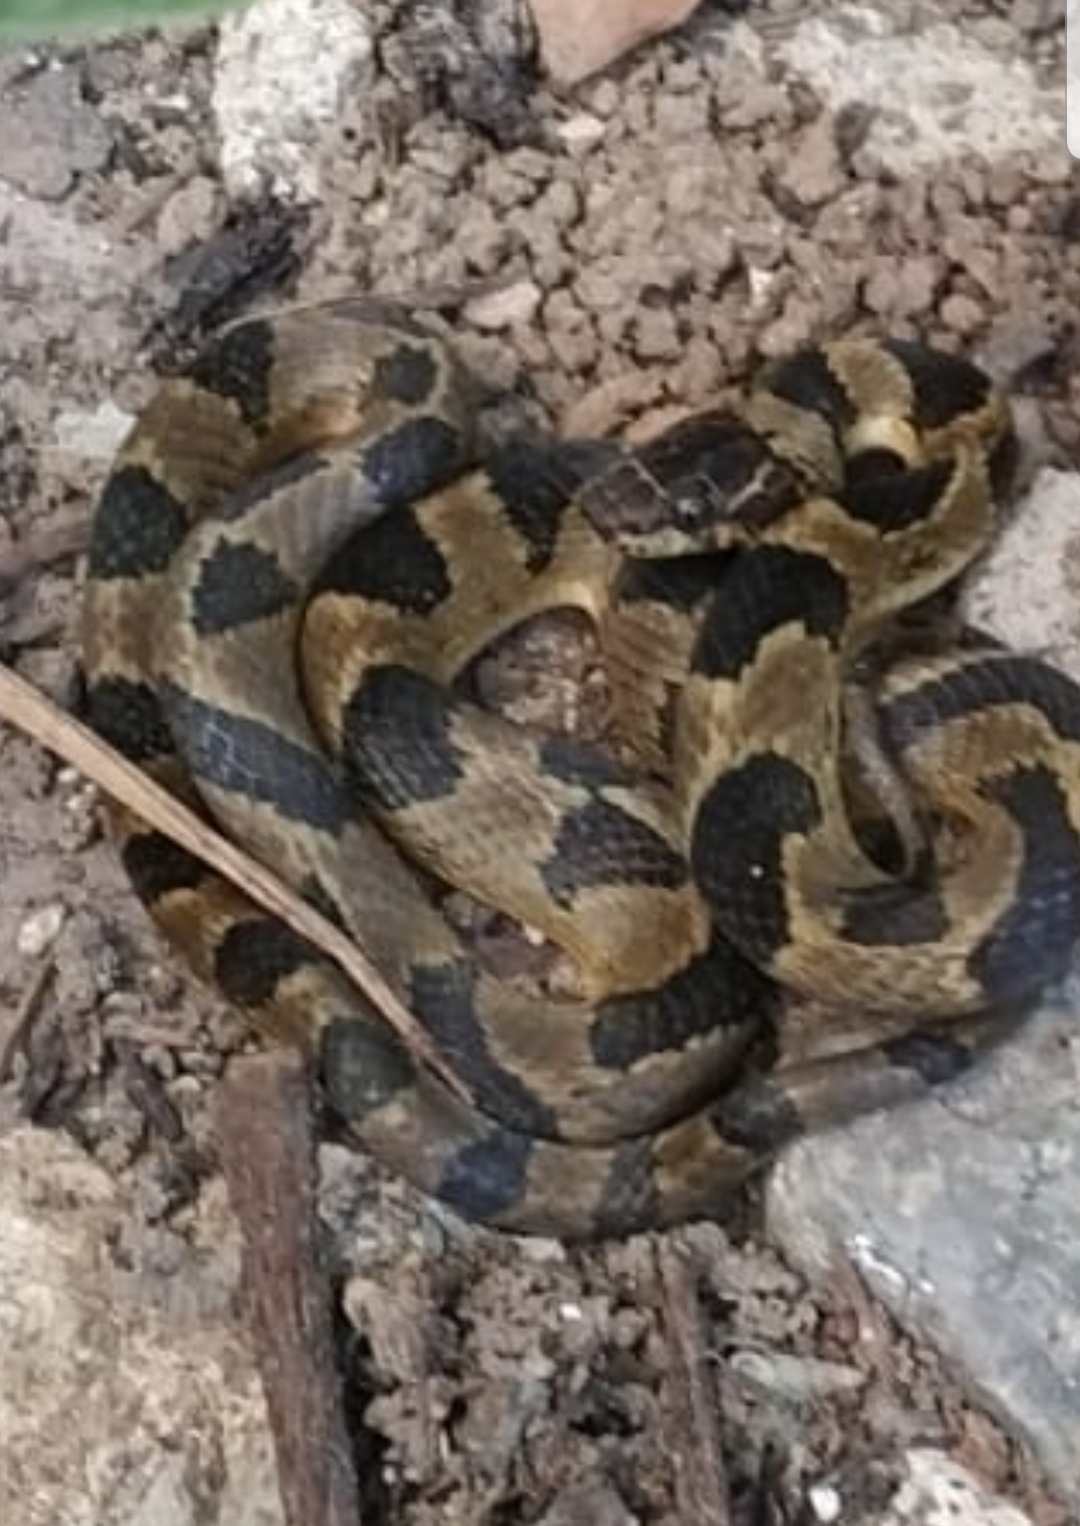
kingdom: Animalia
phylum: Chordata
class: Squamata
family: Colubridae
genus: Leptodeira
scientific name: Leptodeira maculata
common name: Southwestern cat-eyed snake
